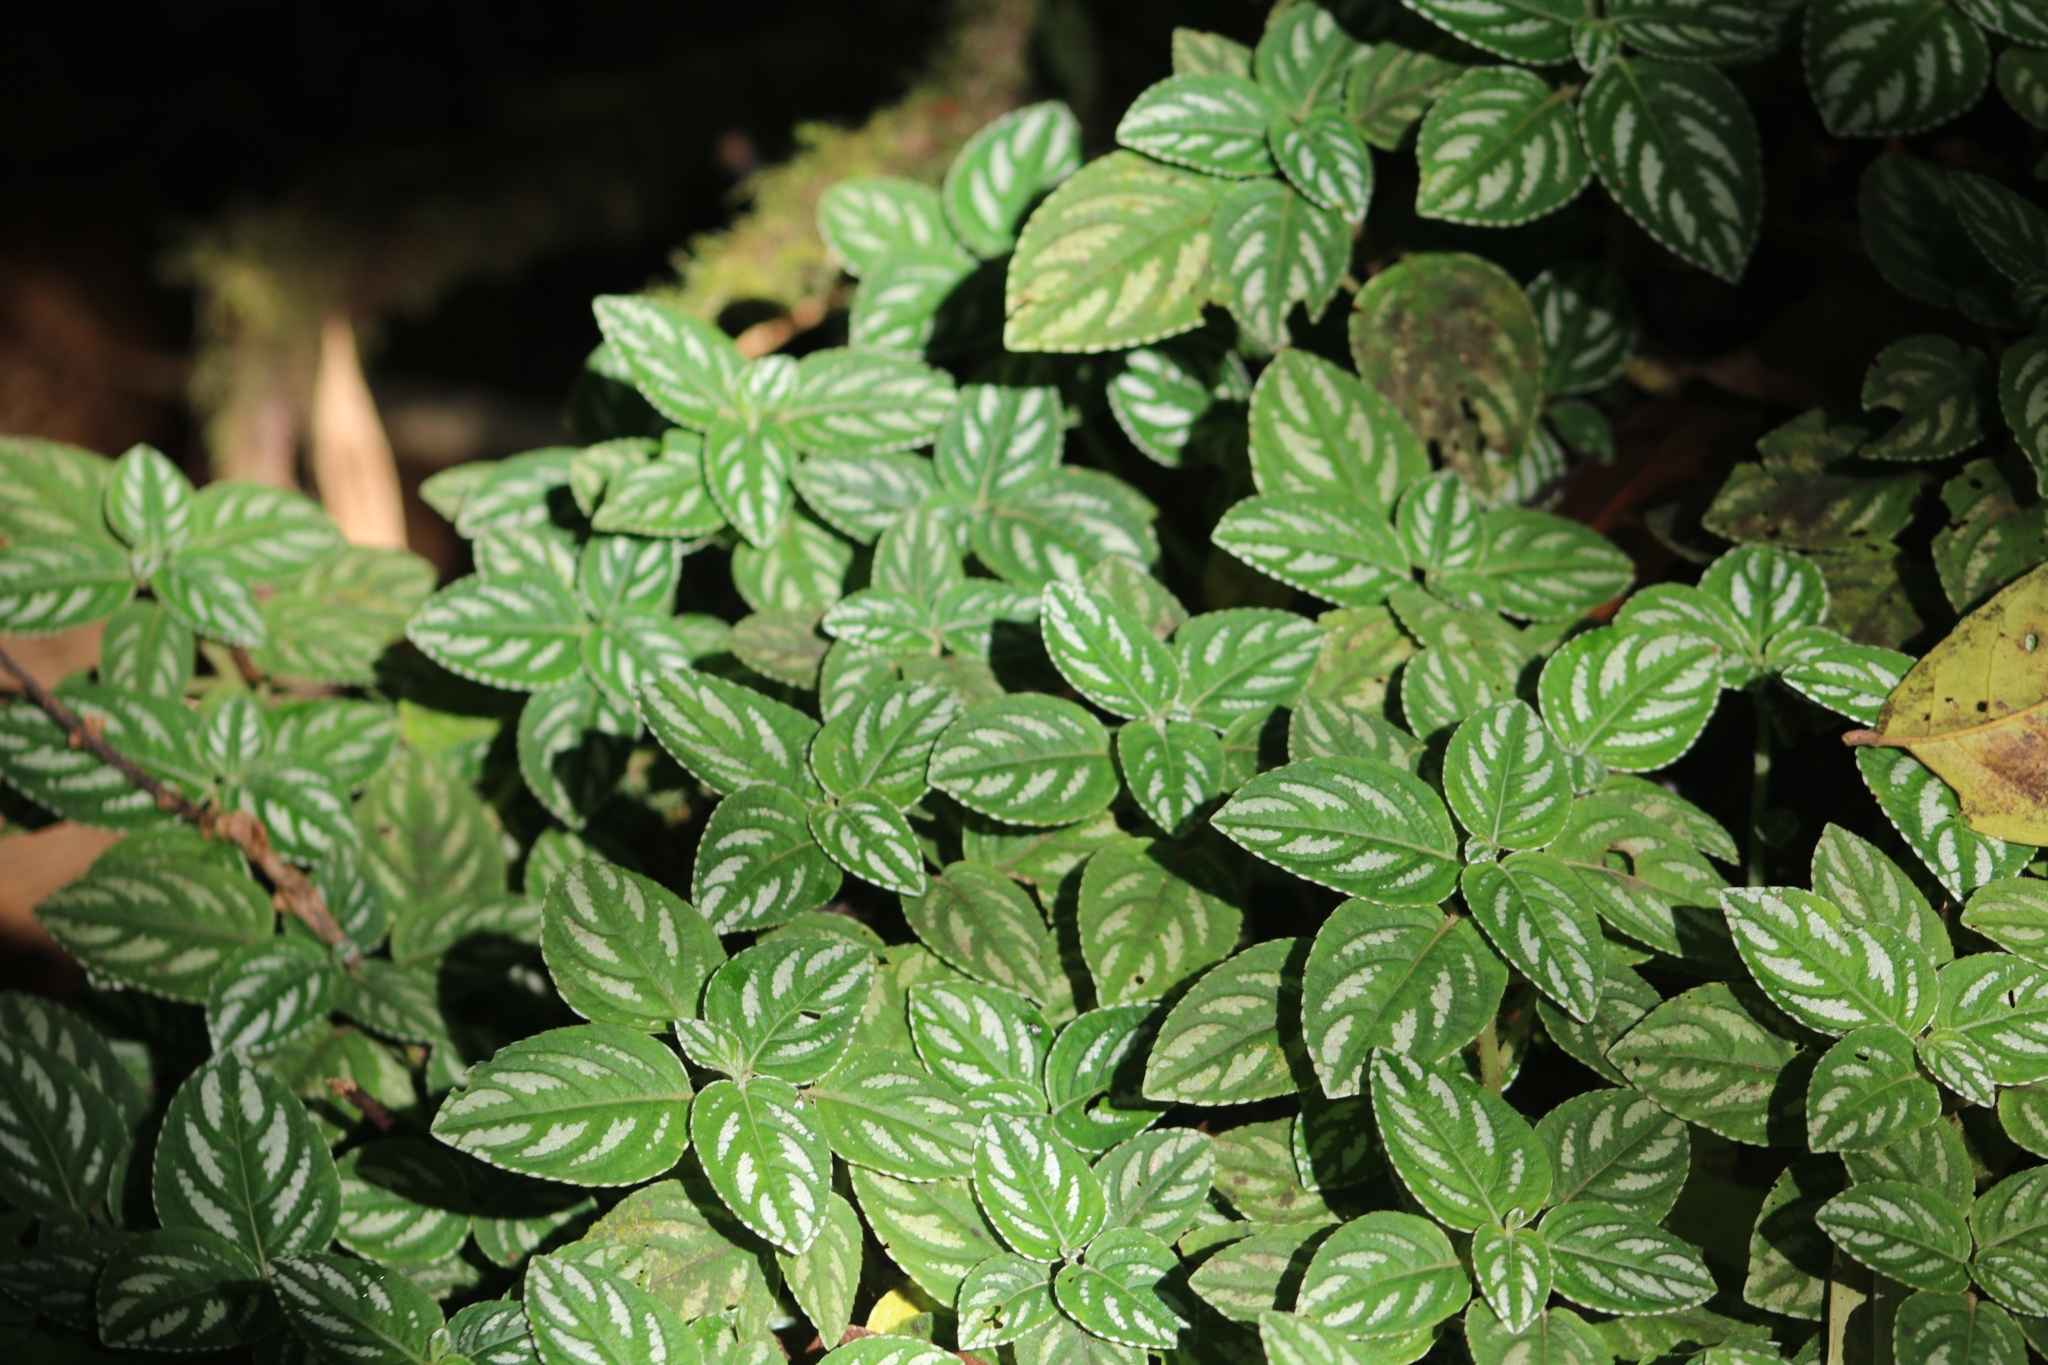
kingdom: Plantae
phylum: Tracheophyta
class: Magnoliopsida
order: Ericales
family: Balsaminaceae
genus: Impatiens
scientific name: Impatiens marianae
